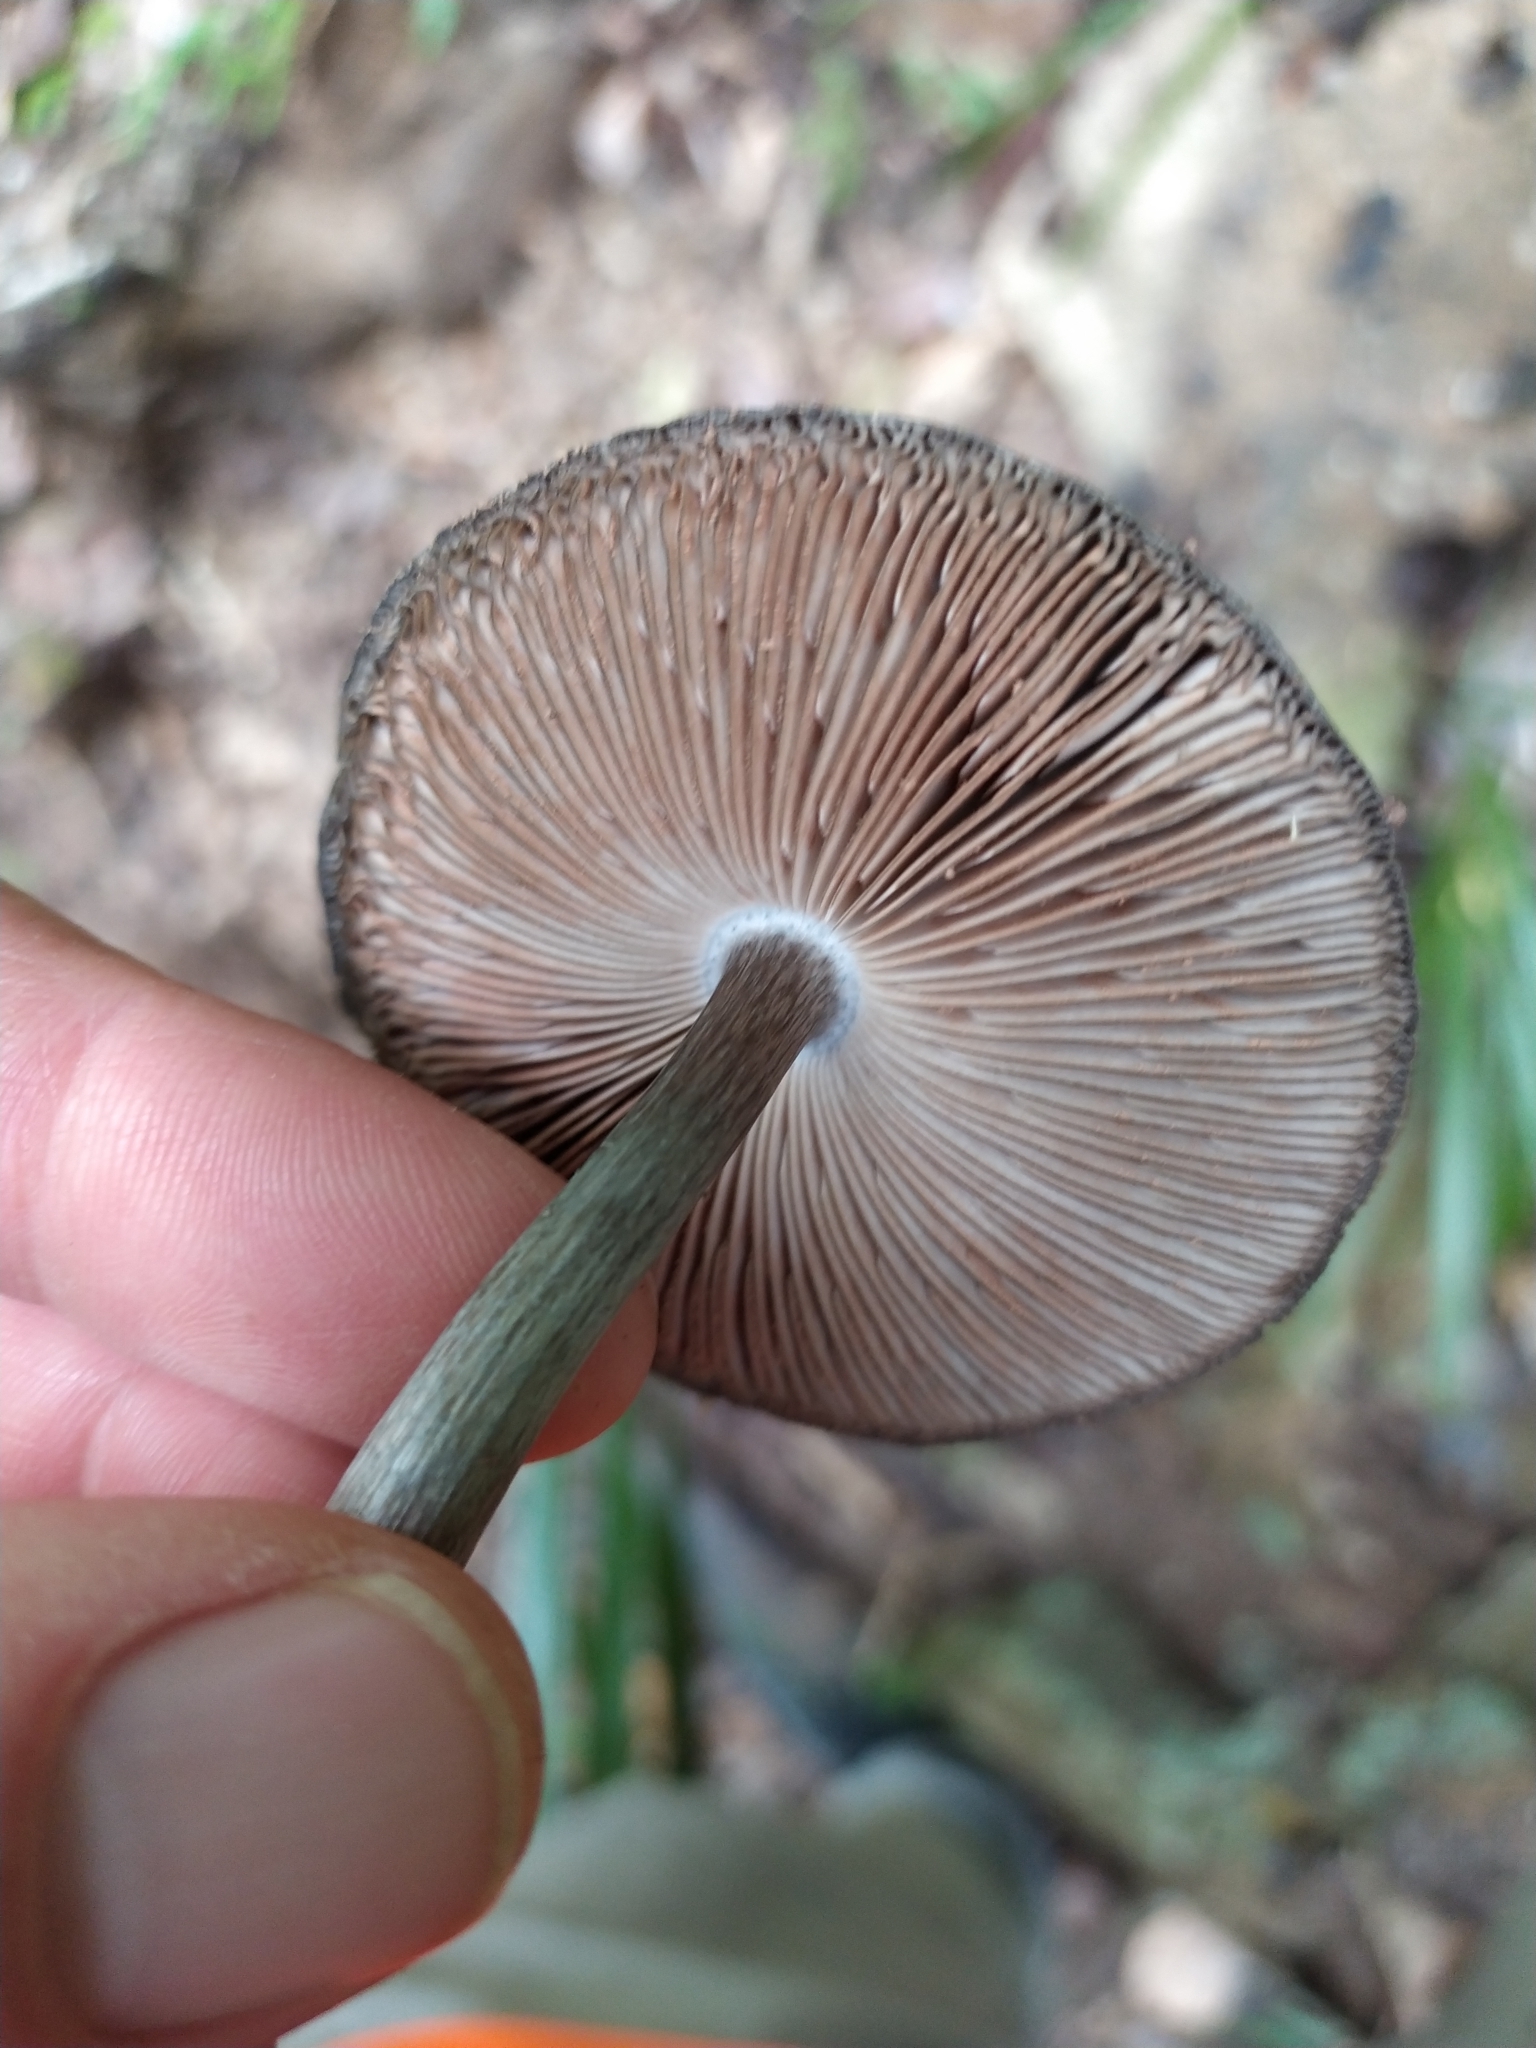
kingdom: Fungi
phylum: Basidiomycota
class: Agaricomycetes
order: Agaricales
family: Pluteaceae
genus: Pluteus
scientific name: Pluteus velutinornatus
